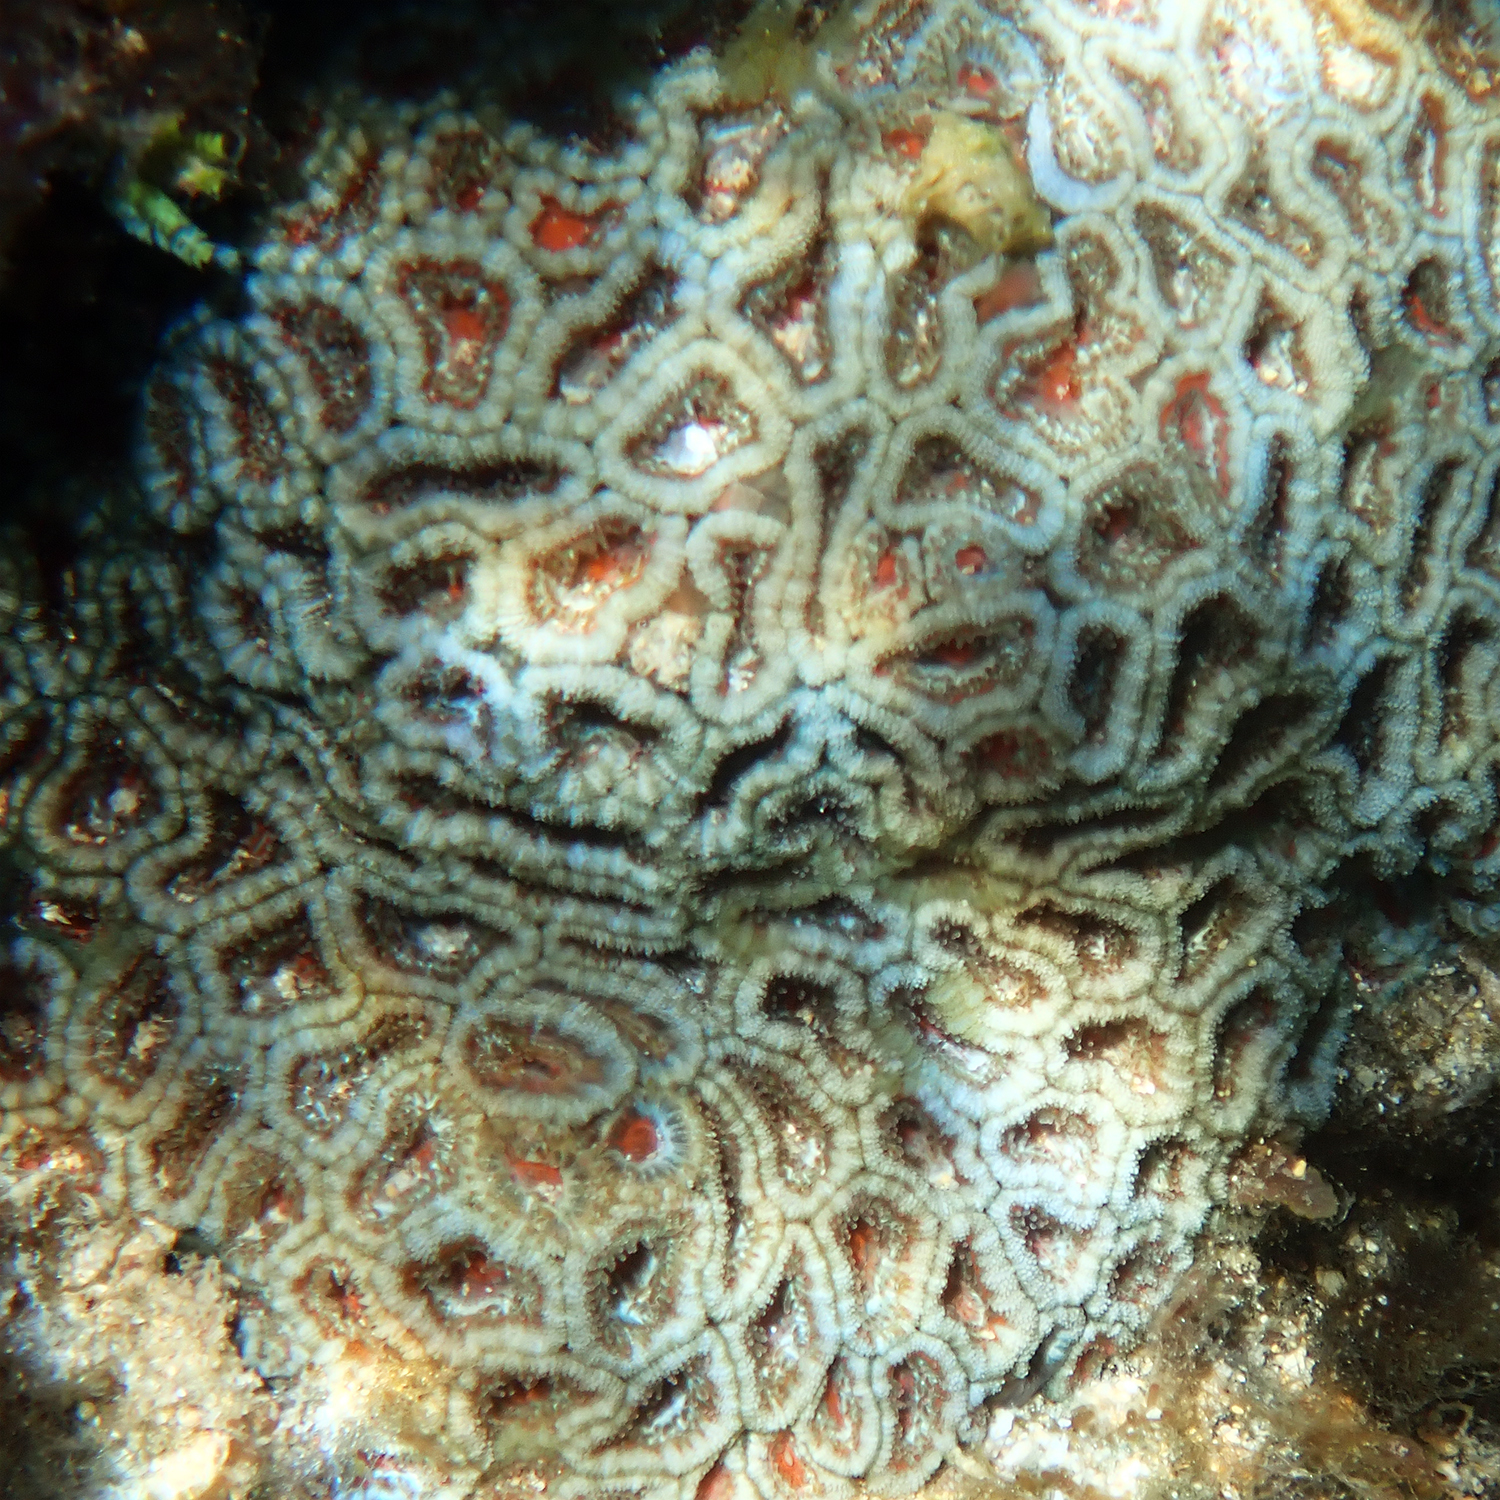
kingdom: Animalia
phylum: Cnidaria
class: Anthozoa
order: Scleractinia
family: Lobophylliidae
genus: Micromussa
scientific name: Micromussa lordhowensis
